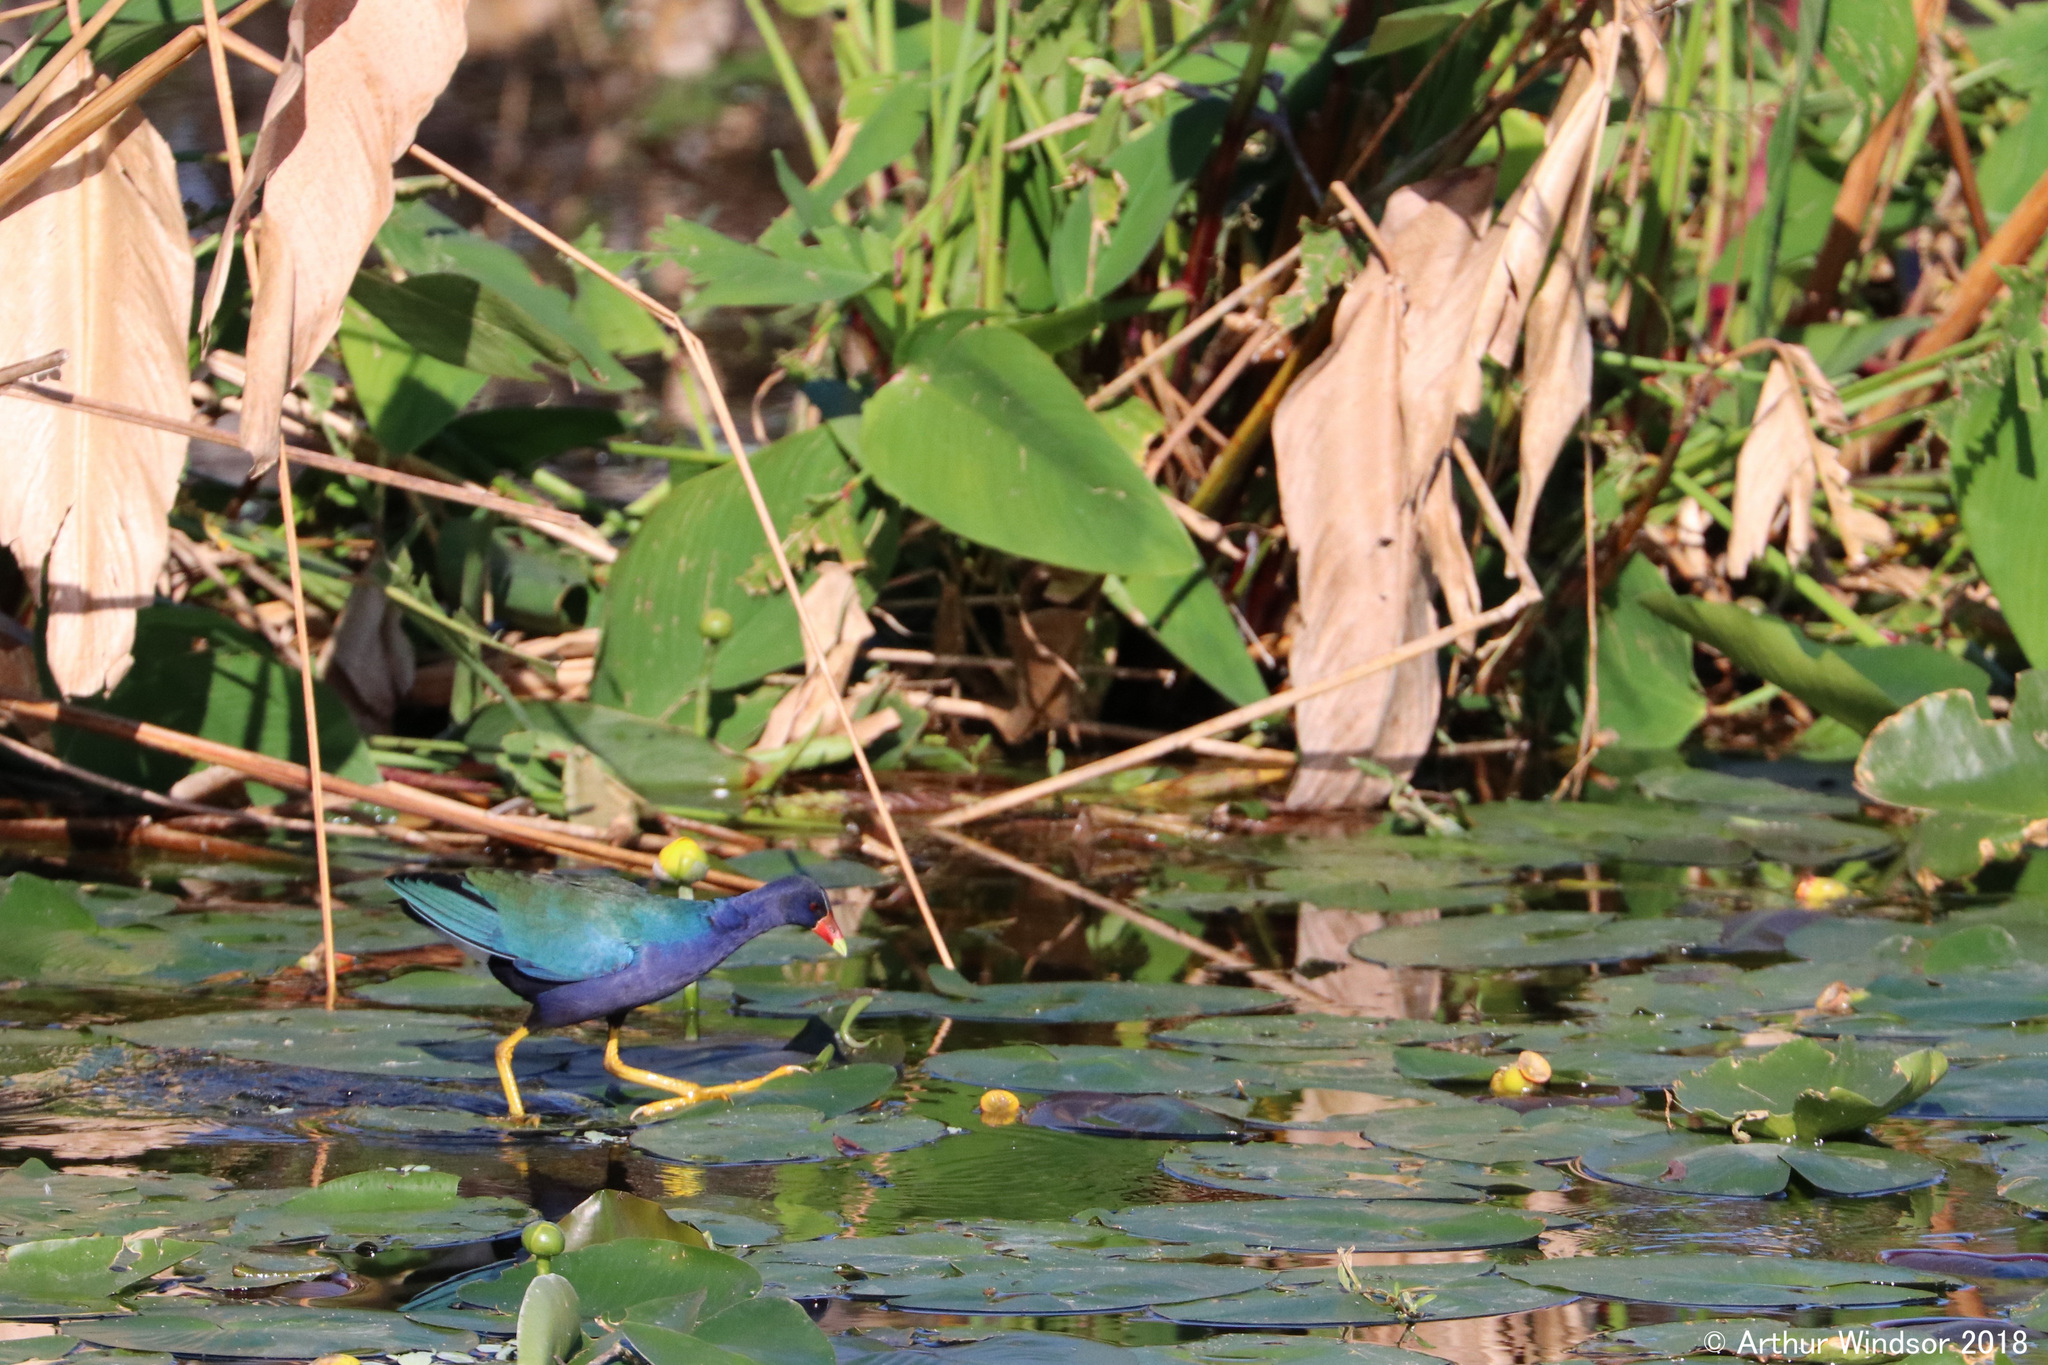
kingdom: Animalia
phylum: Chordata
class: Aves
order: Gruiformes
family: Rallidae
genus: Porphyrio
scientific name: Porphyrio martinica
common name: Purple gallinule
